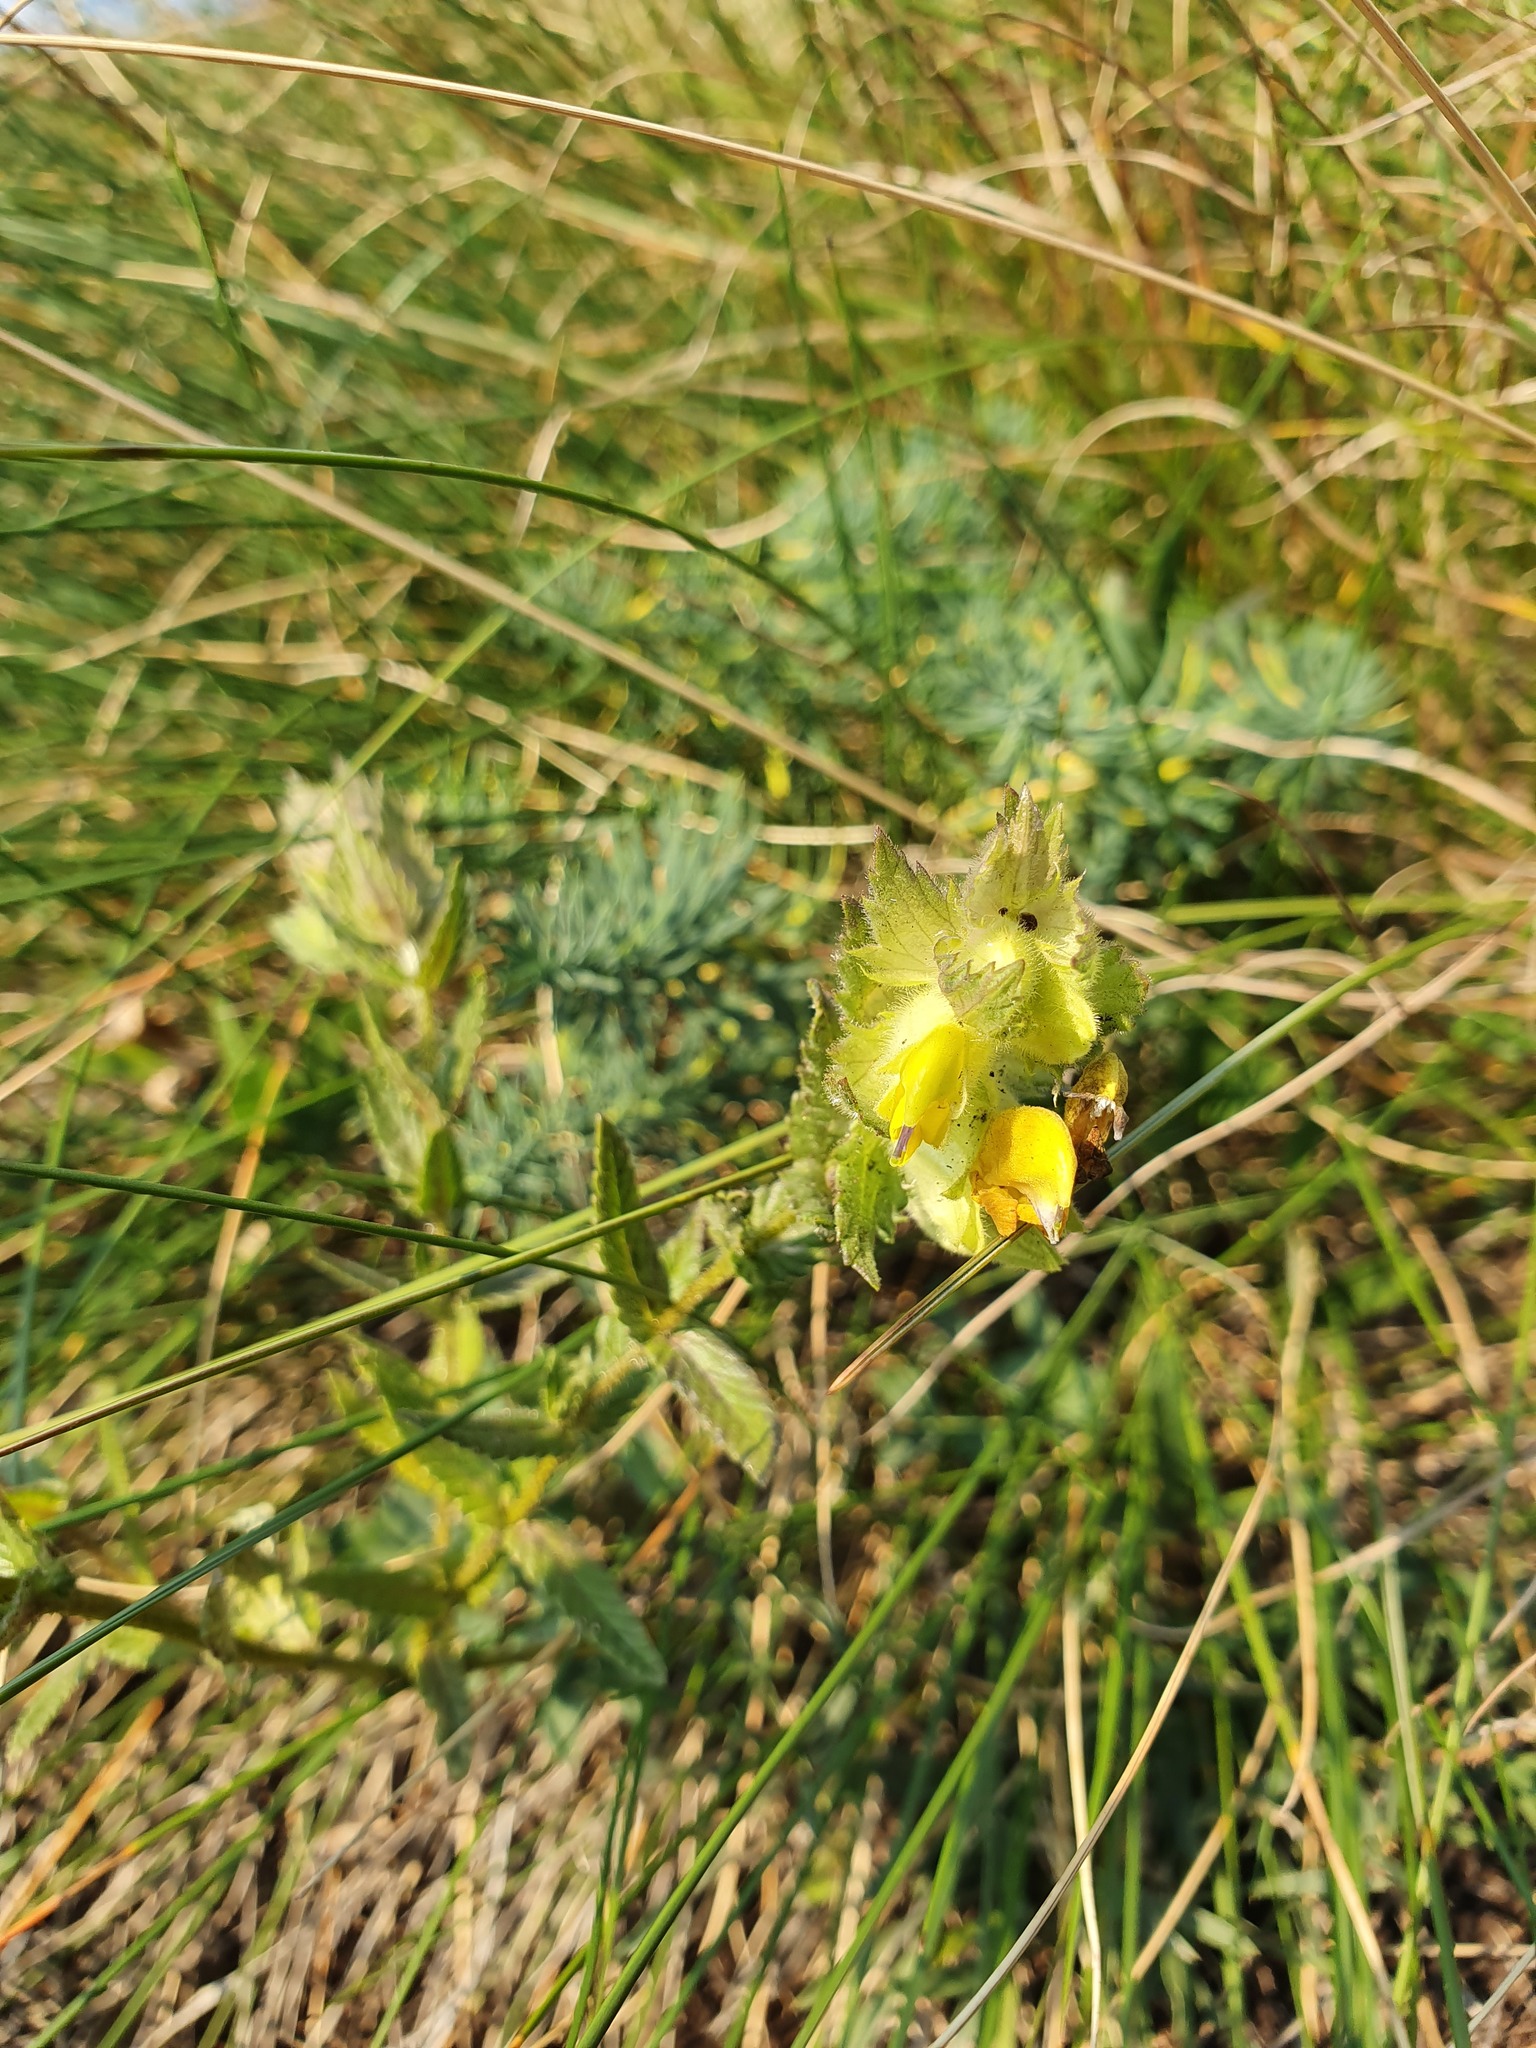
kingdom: Plantae
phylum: Tracheophyta
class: Magnoliopsida
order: Lamiales
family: Orobanchaceae
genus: Rhinanthus
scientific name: Rhinanthus rumelicus
